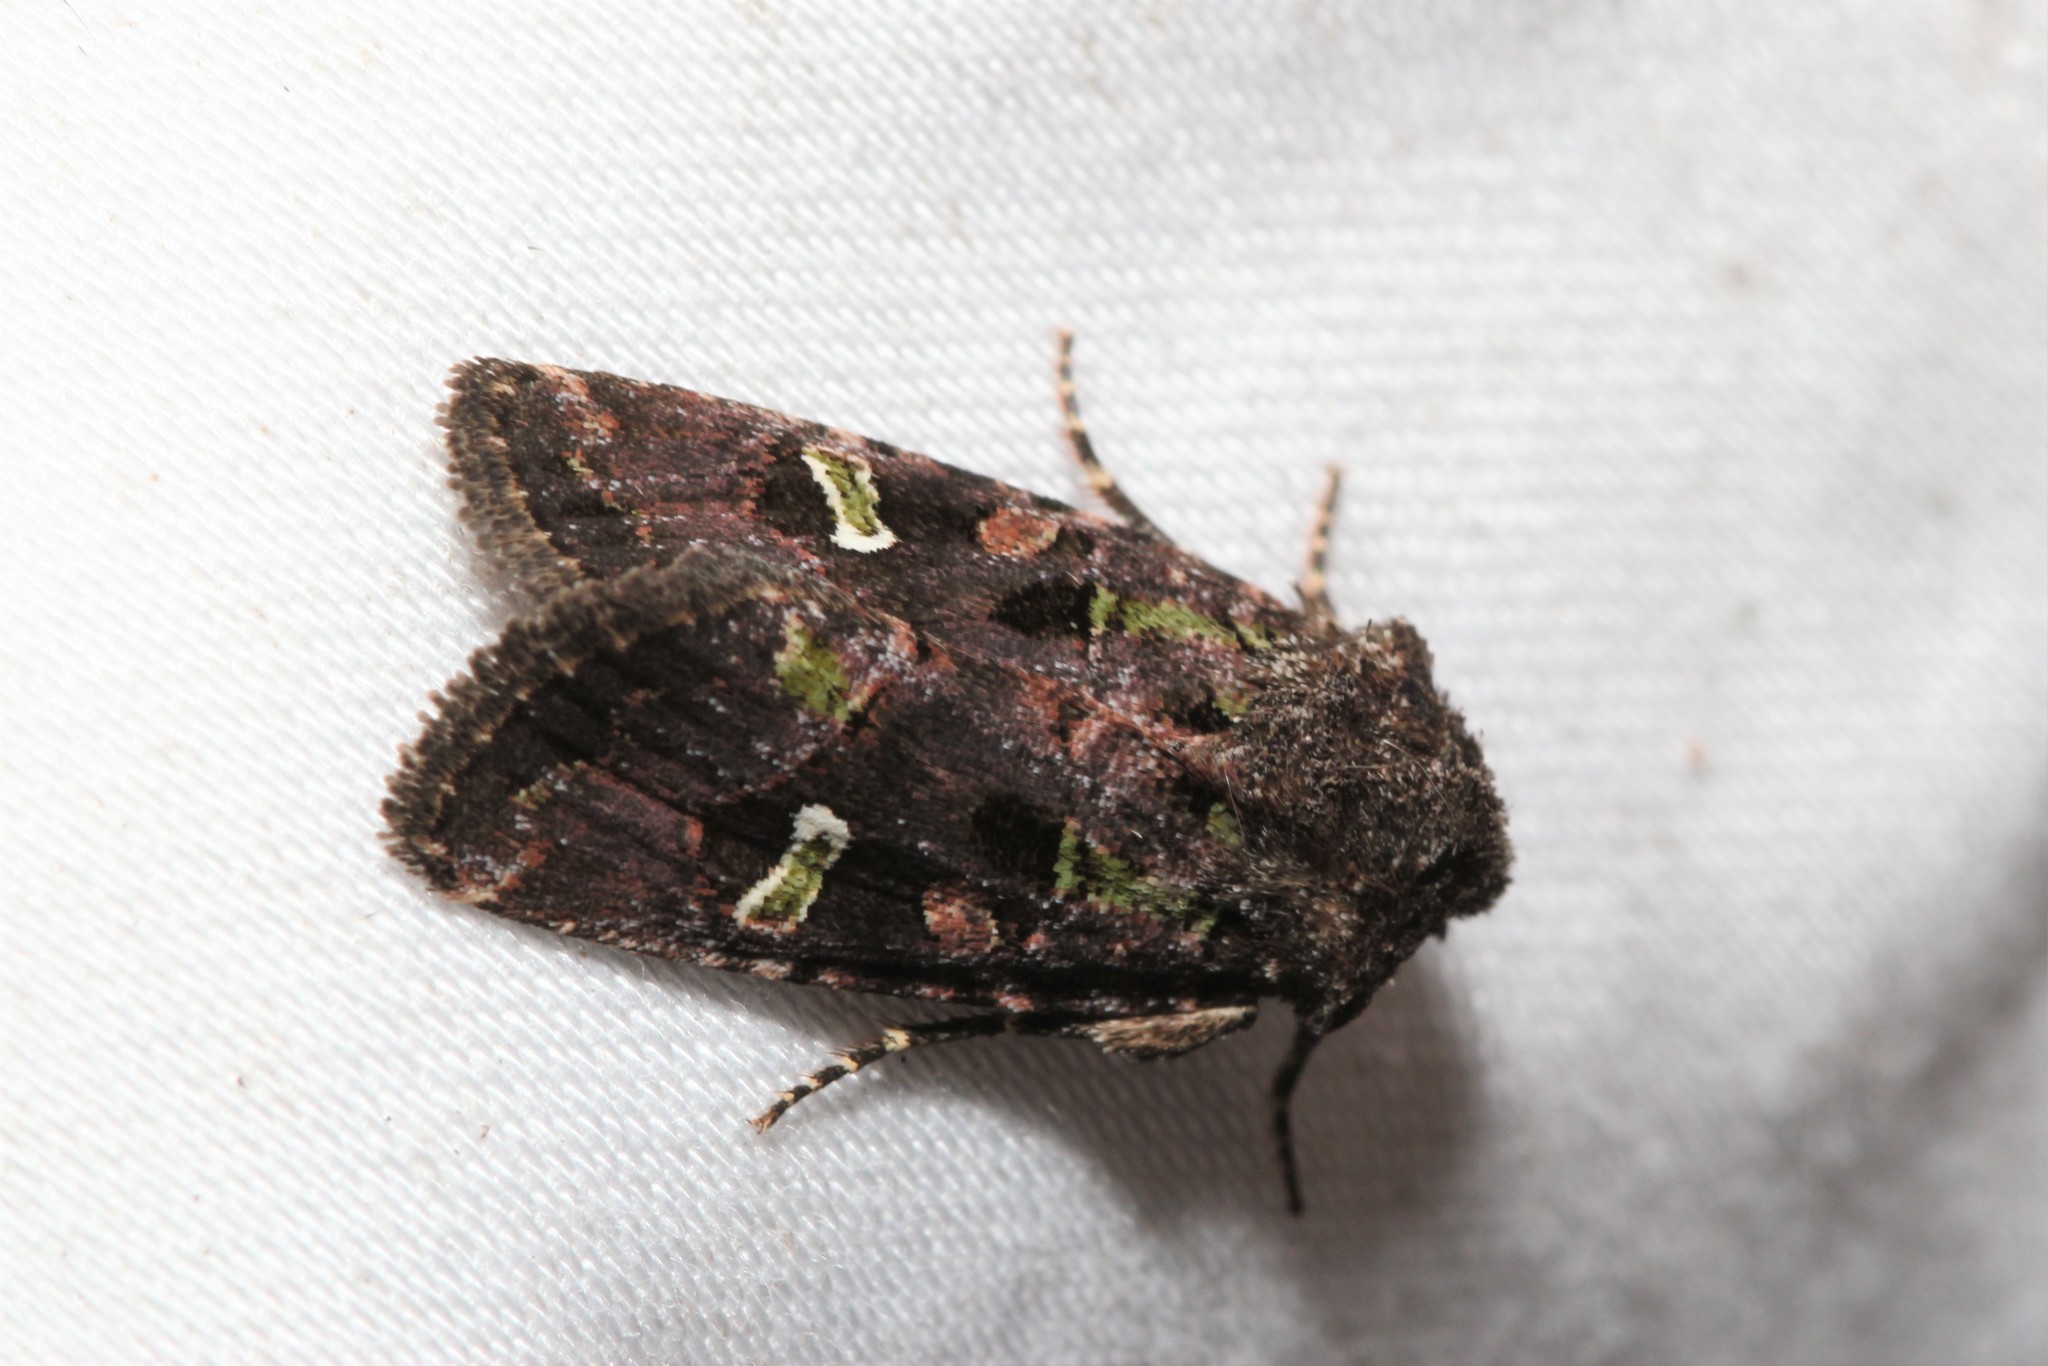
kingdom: Animalia
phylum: Arthropoda
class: Insecta
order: Lepidoptera
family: Noctuidae
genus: Lacinipolia
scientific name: Lacinipolia renigera
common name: Kidney-spotted minor
